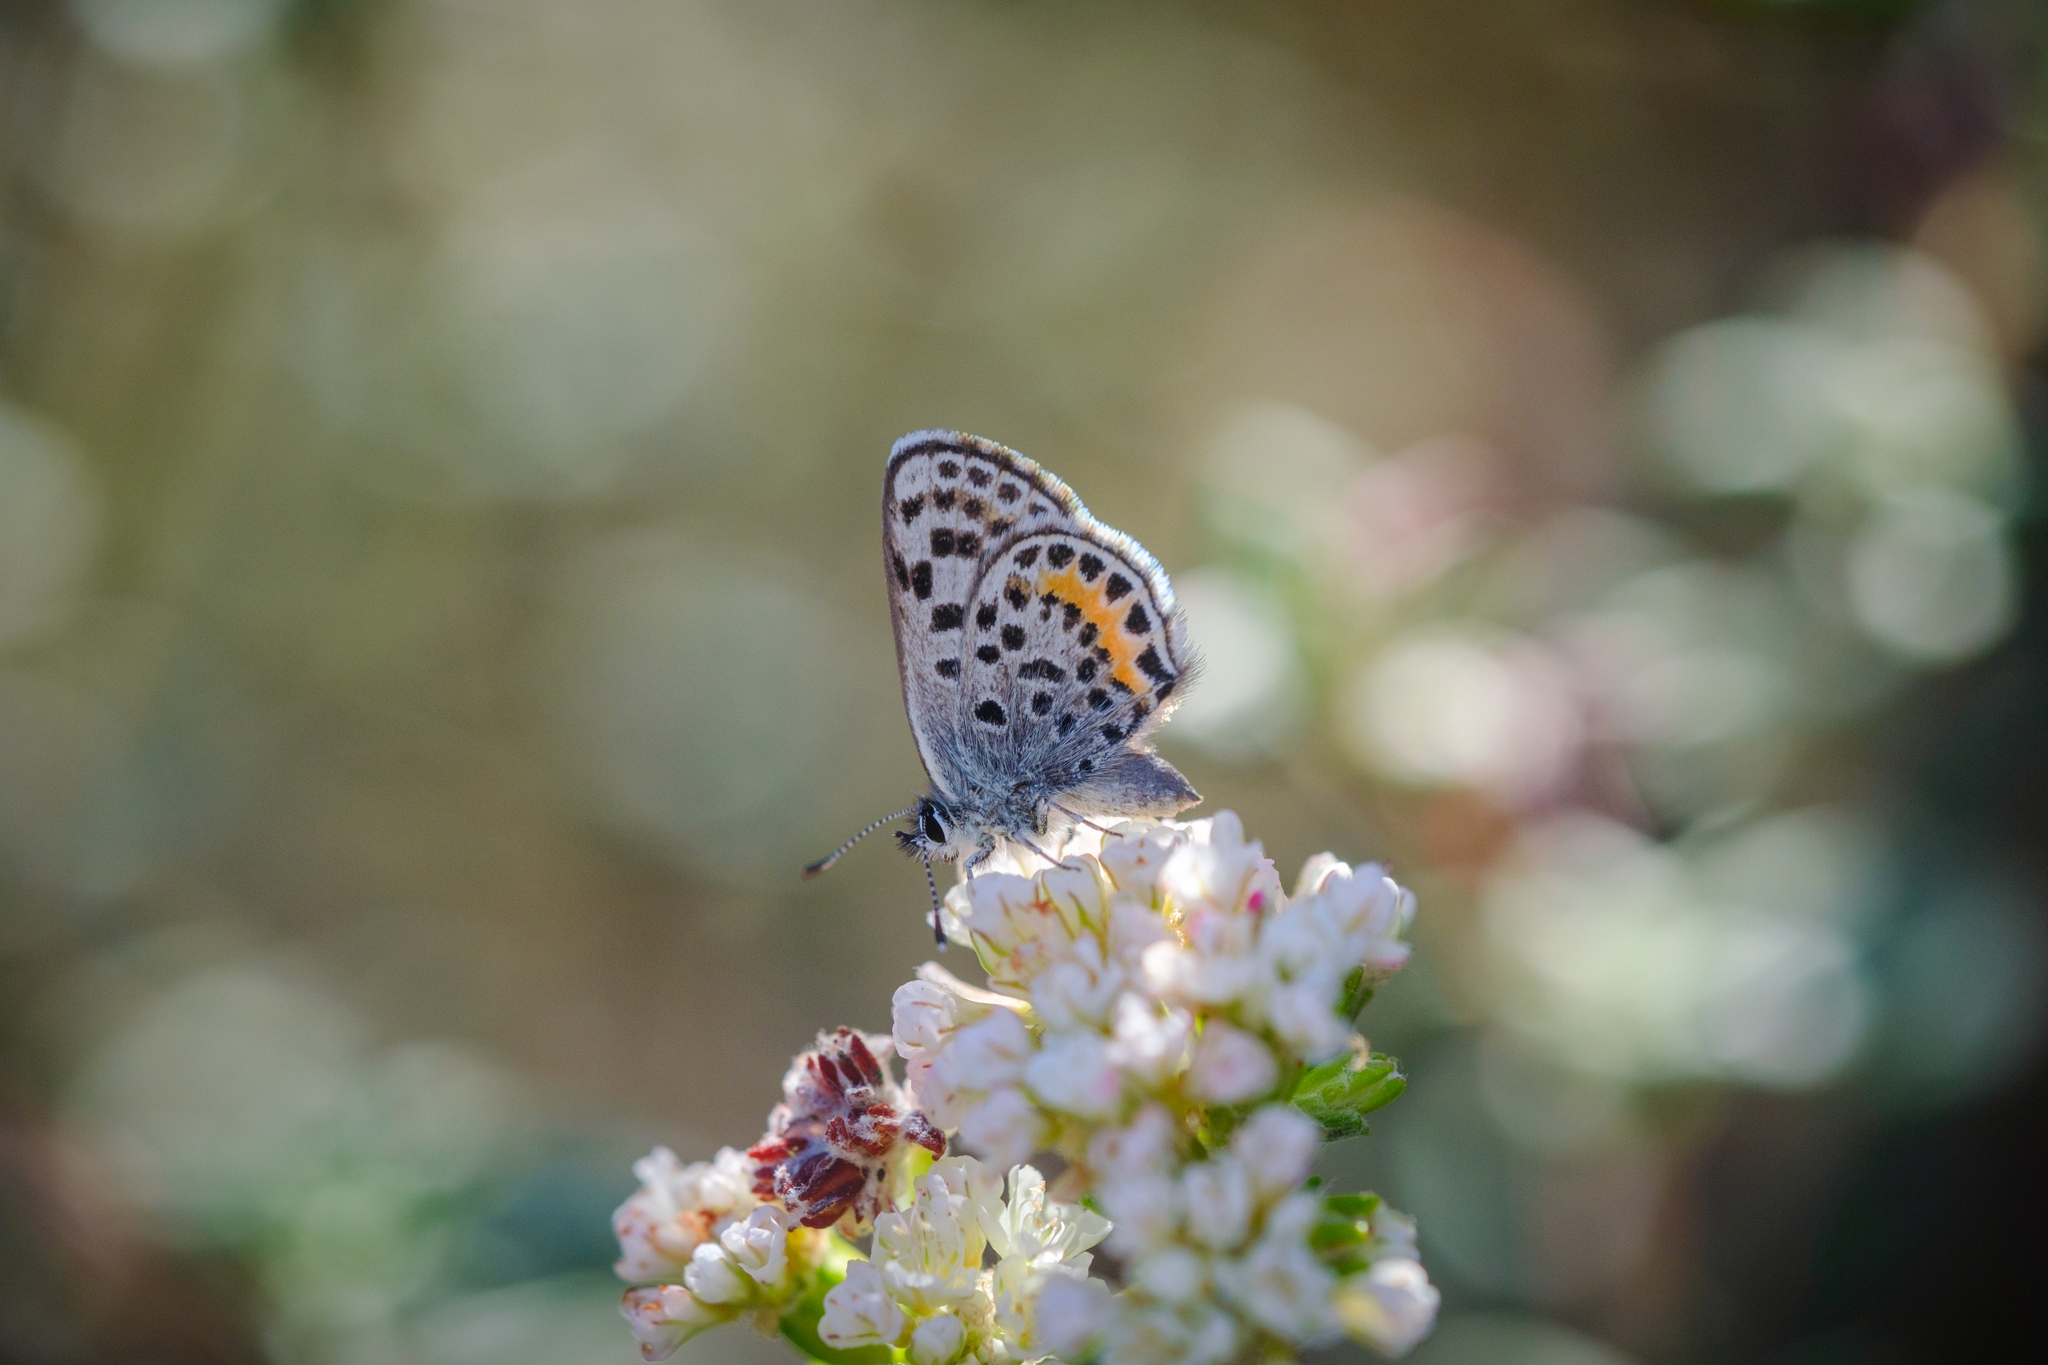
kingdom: Animalia
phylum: Arthropoda
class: Insecta
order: Lepidoptera
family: Lycaenidae
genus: Euphilotes
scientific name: Euphilotes battoides
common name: Square-spotted blue
